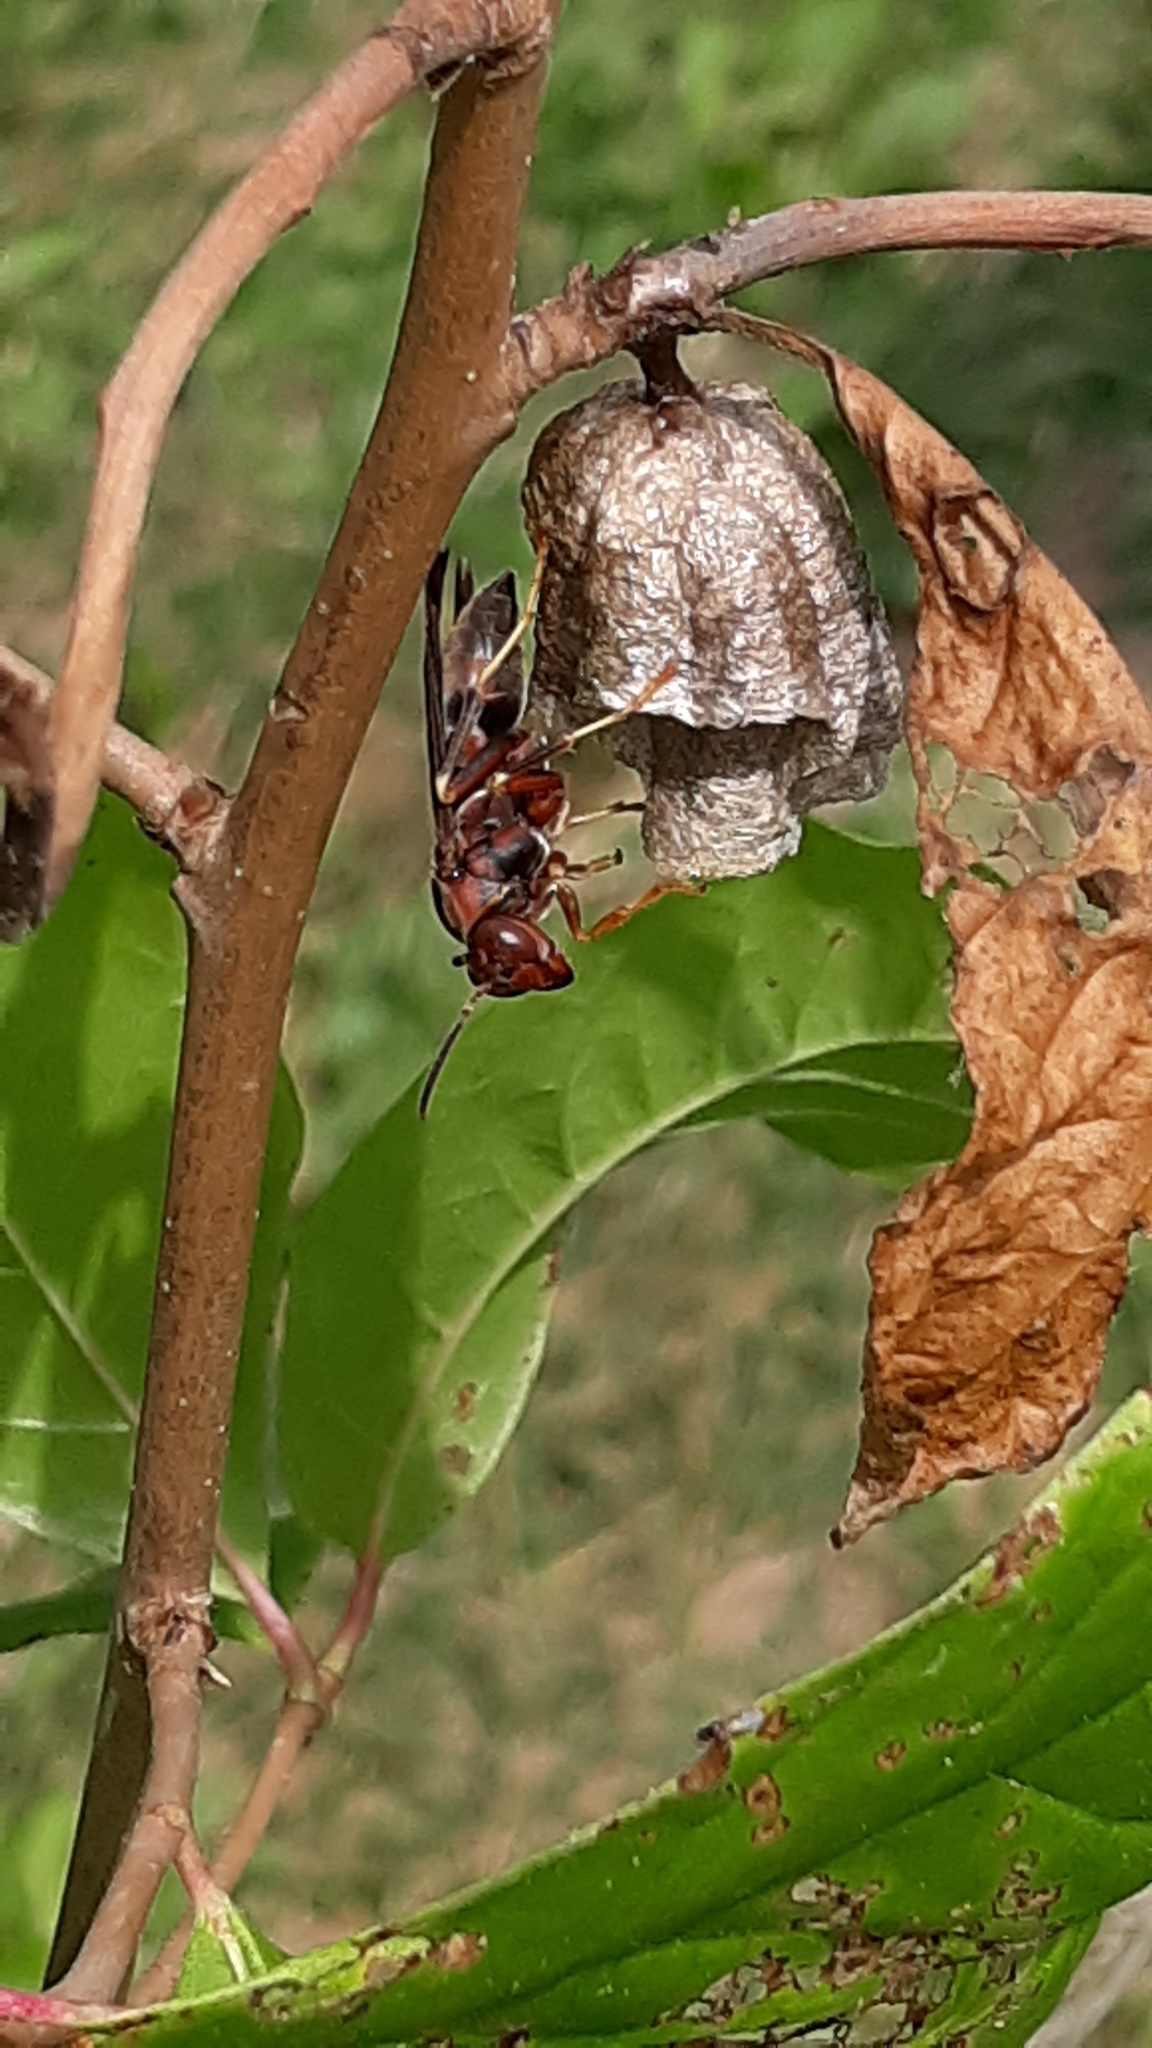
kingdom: Animalia
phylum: Arthropoda
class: Insecta
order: Hymenoptera
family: Eumenidae
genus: Polistes
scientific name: Polistes metricus
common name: Metric paper wasp
